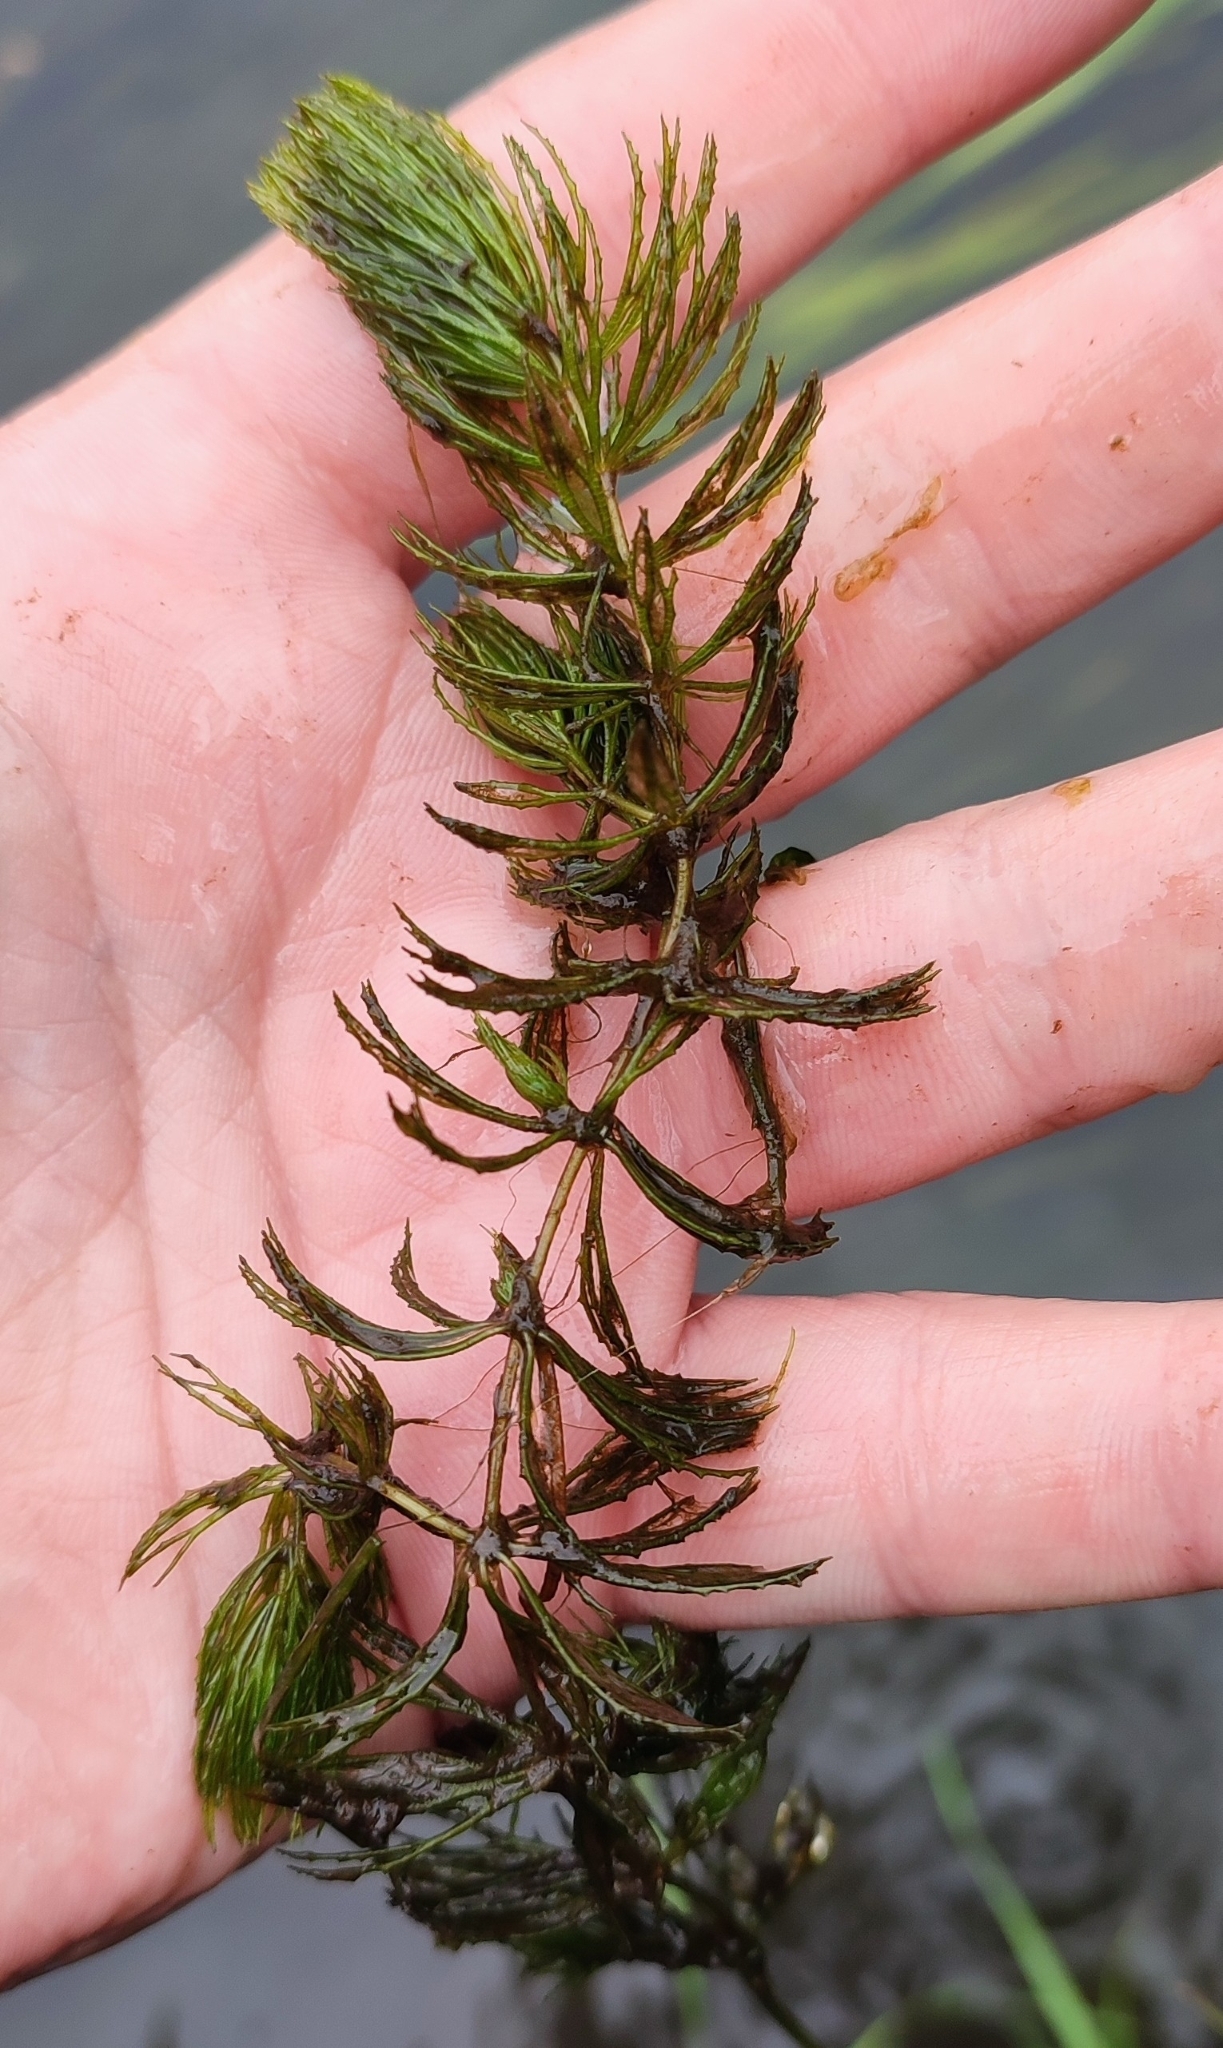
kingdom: Plantae
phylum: Tracheophyta
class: Magnoliopsida
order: Ceratophyllales
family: Ceratophyllaceae
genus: Ceratophyllum
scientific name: Ceratophyllum demersum
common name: Rigid hornwort
